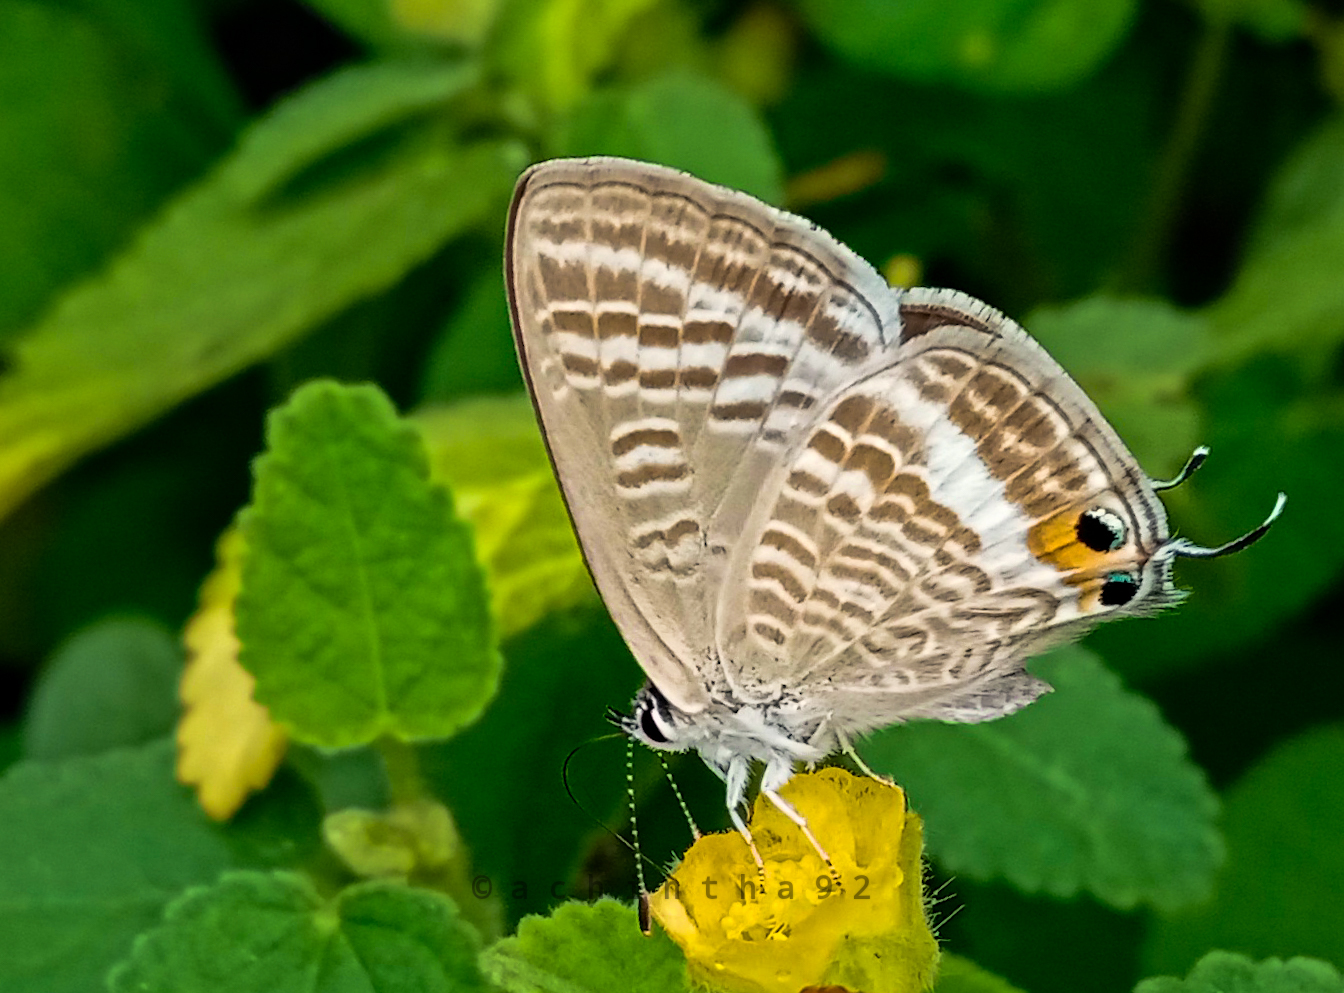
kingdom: Animalia
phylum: Arthropoda
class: Insecta
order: Lepidoptera
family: Lycaenidae
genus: Lampides
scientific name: Lampides boeticus
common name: Long-tailed blue
